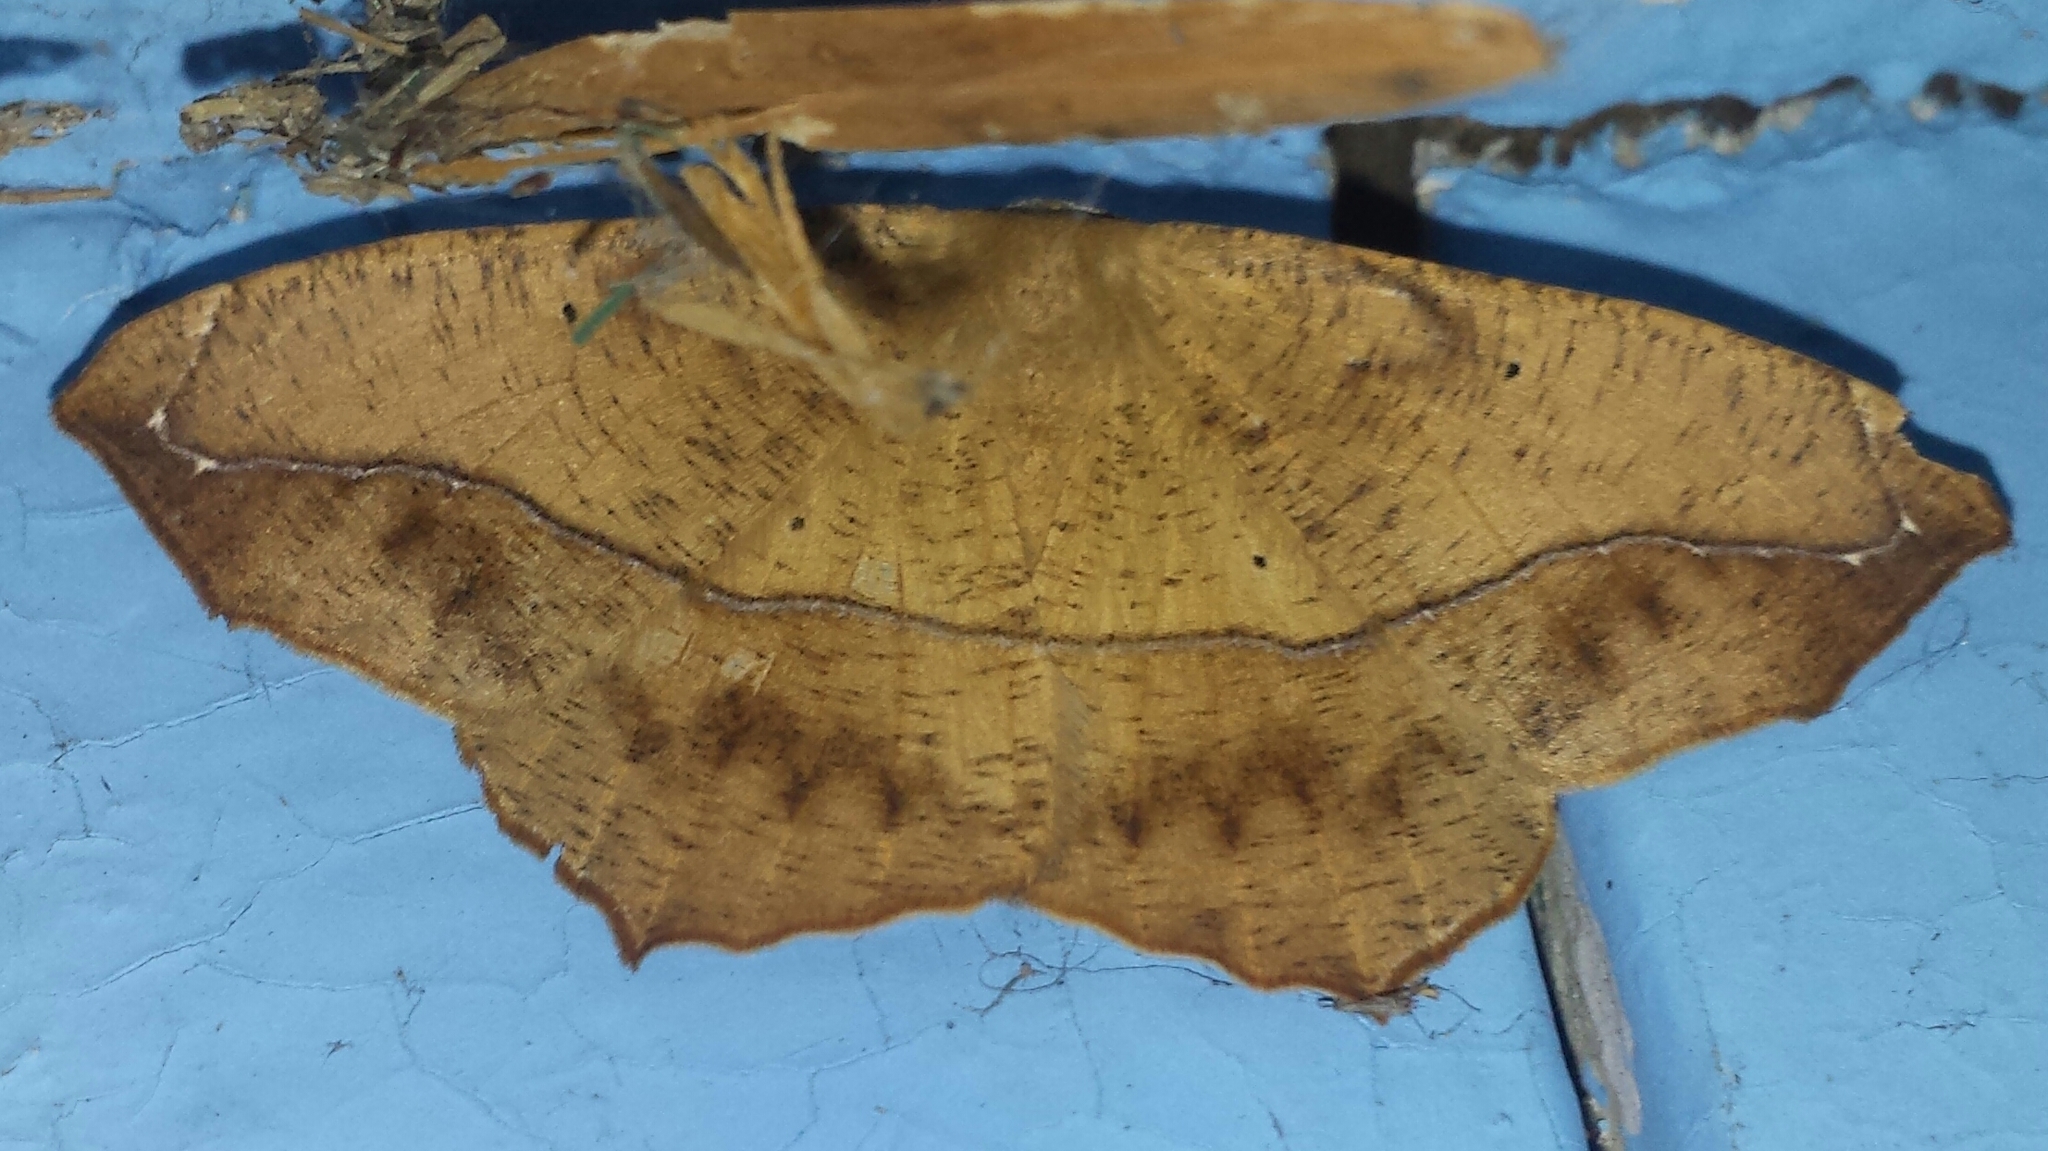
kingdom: Animalia
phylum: Arthropoda
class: Insecta
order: Lepidoptera
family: Geometridae
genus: Prochoerodes
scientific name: Prochoerodes lineola
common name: Large maple spanworm
